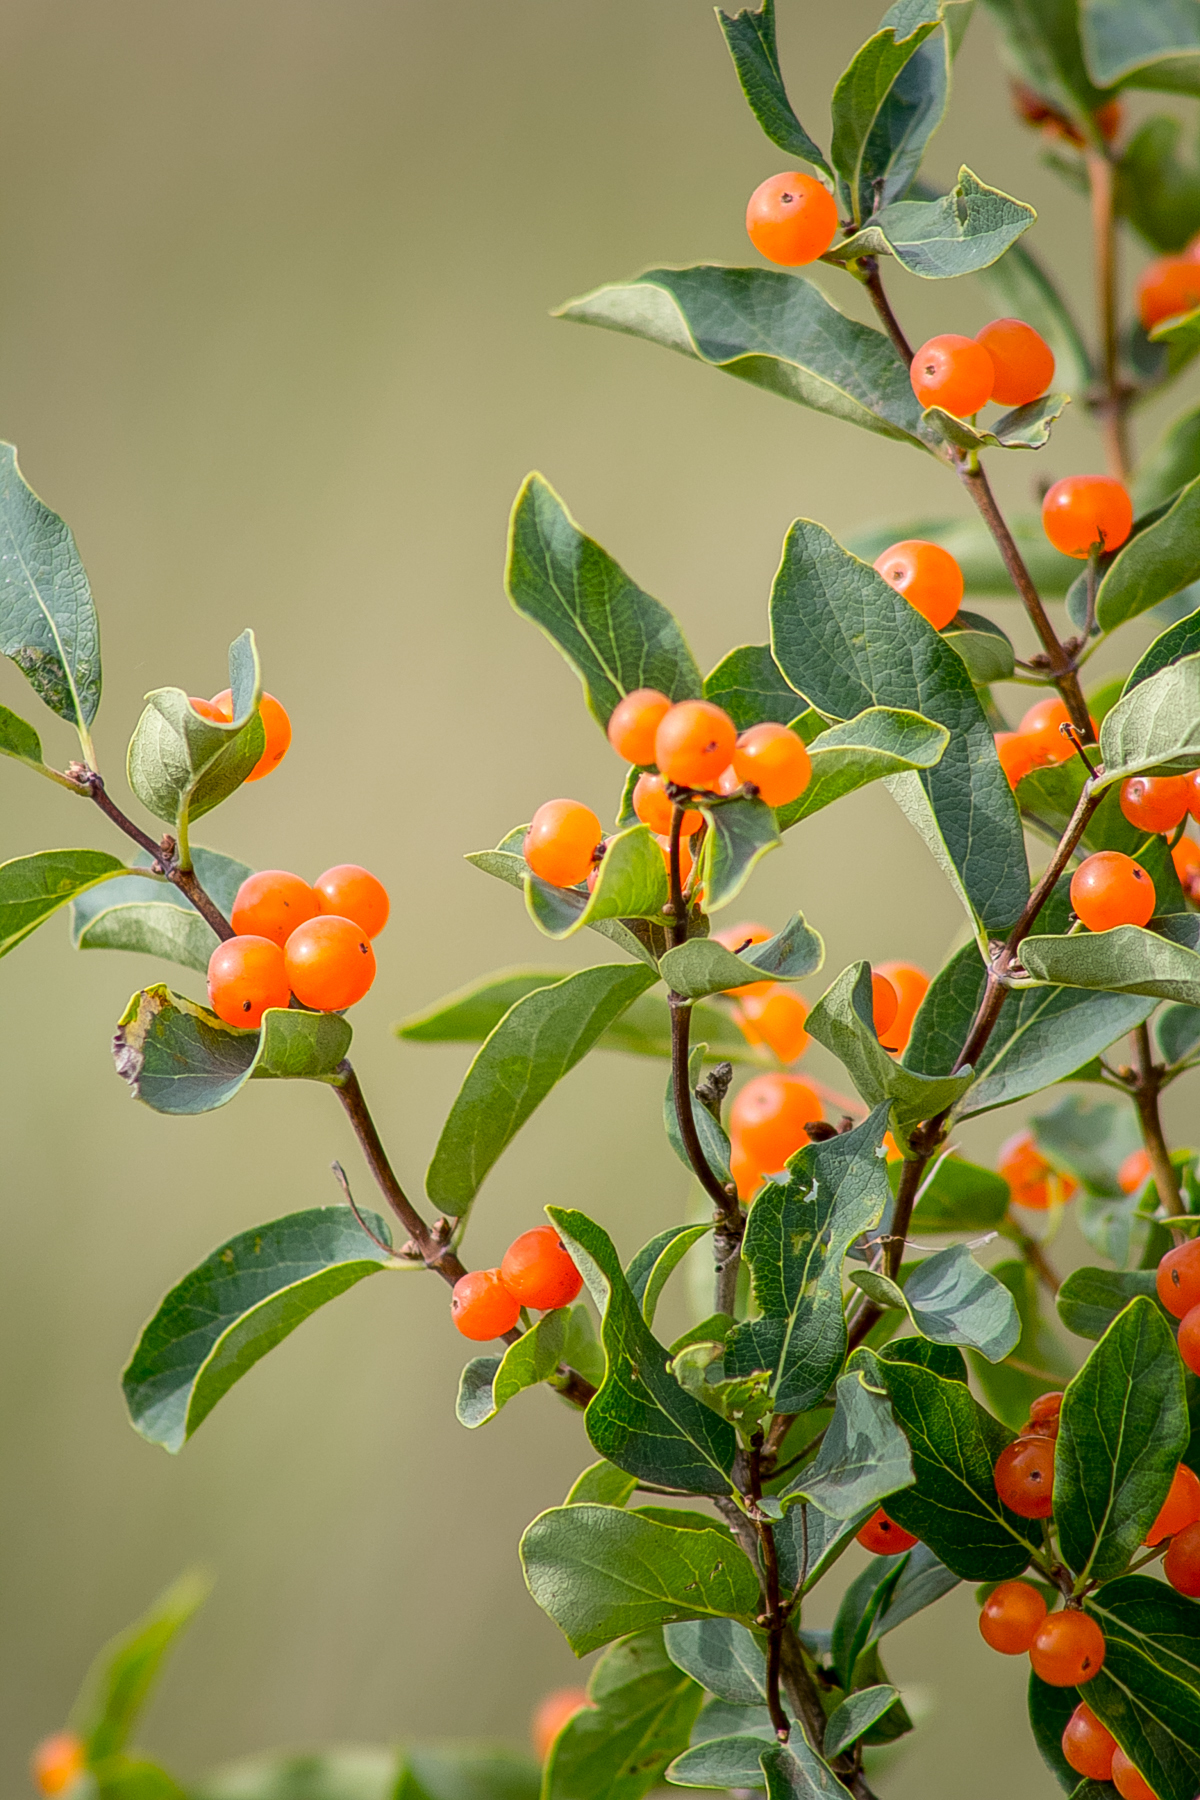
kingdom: Plantae
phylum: Tracheophyta
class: Magnoliopsida
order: Dipsacales
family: Caprifoliaceae
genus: Lonicera
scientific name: Lonicera tatarica
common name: Tatarian honeysuckle
